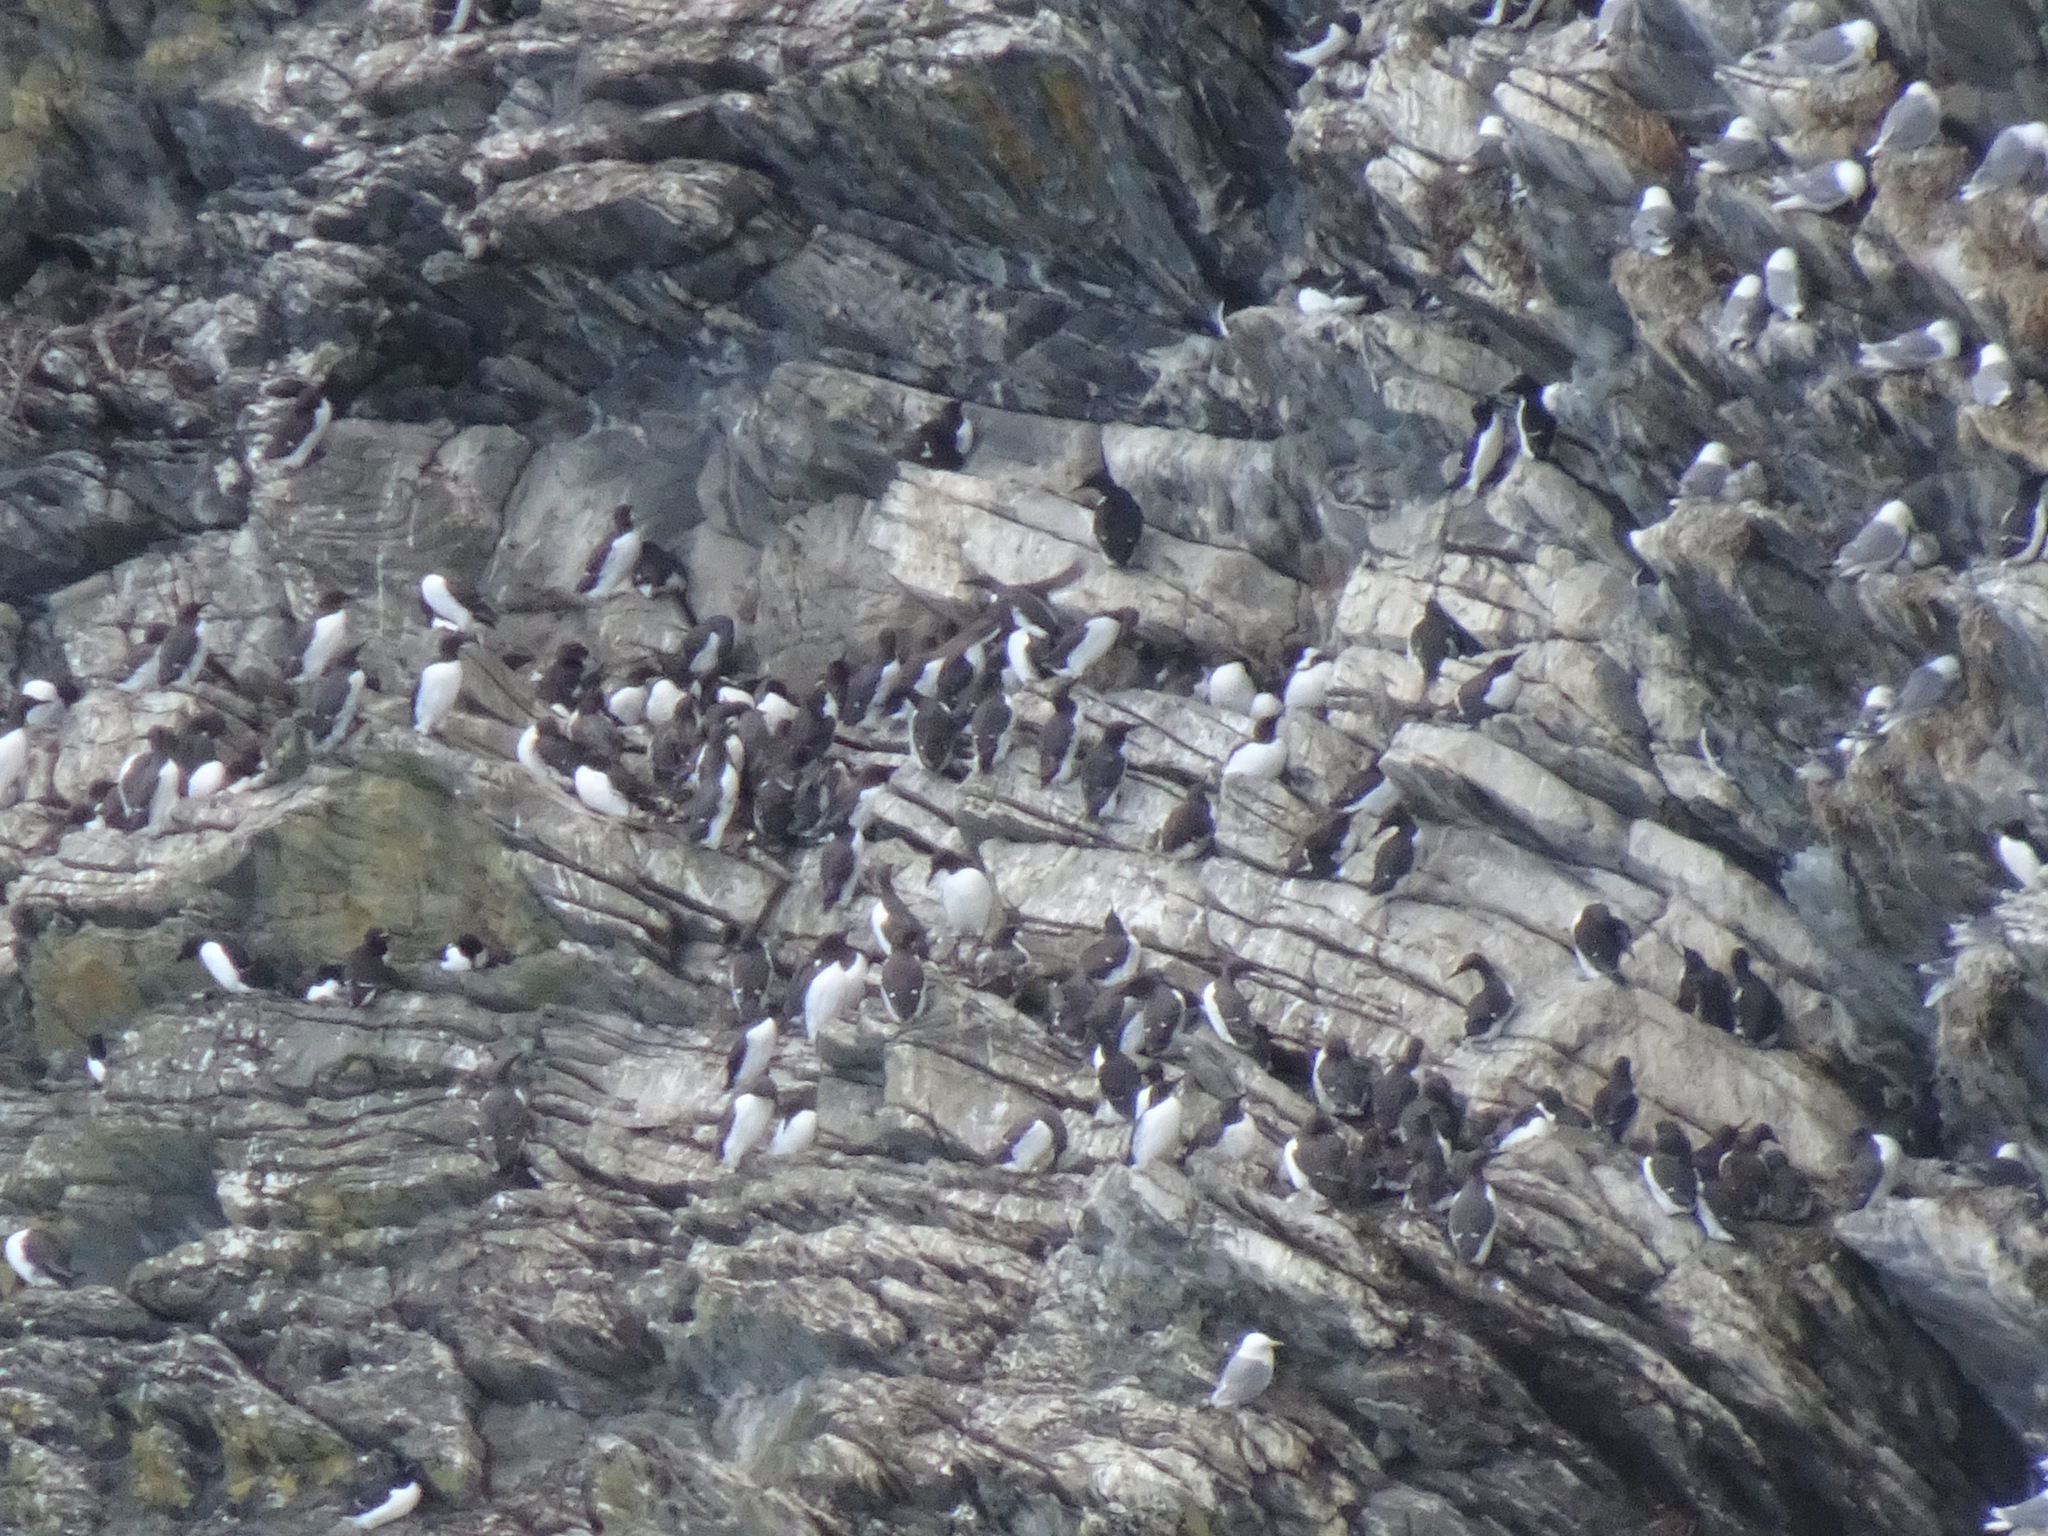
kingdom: Animalia
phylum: Chordata
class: Aves
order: Charadriiformes
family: Alcidae
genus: Uria
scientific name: Uria aalge
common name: Common murre
